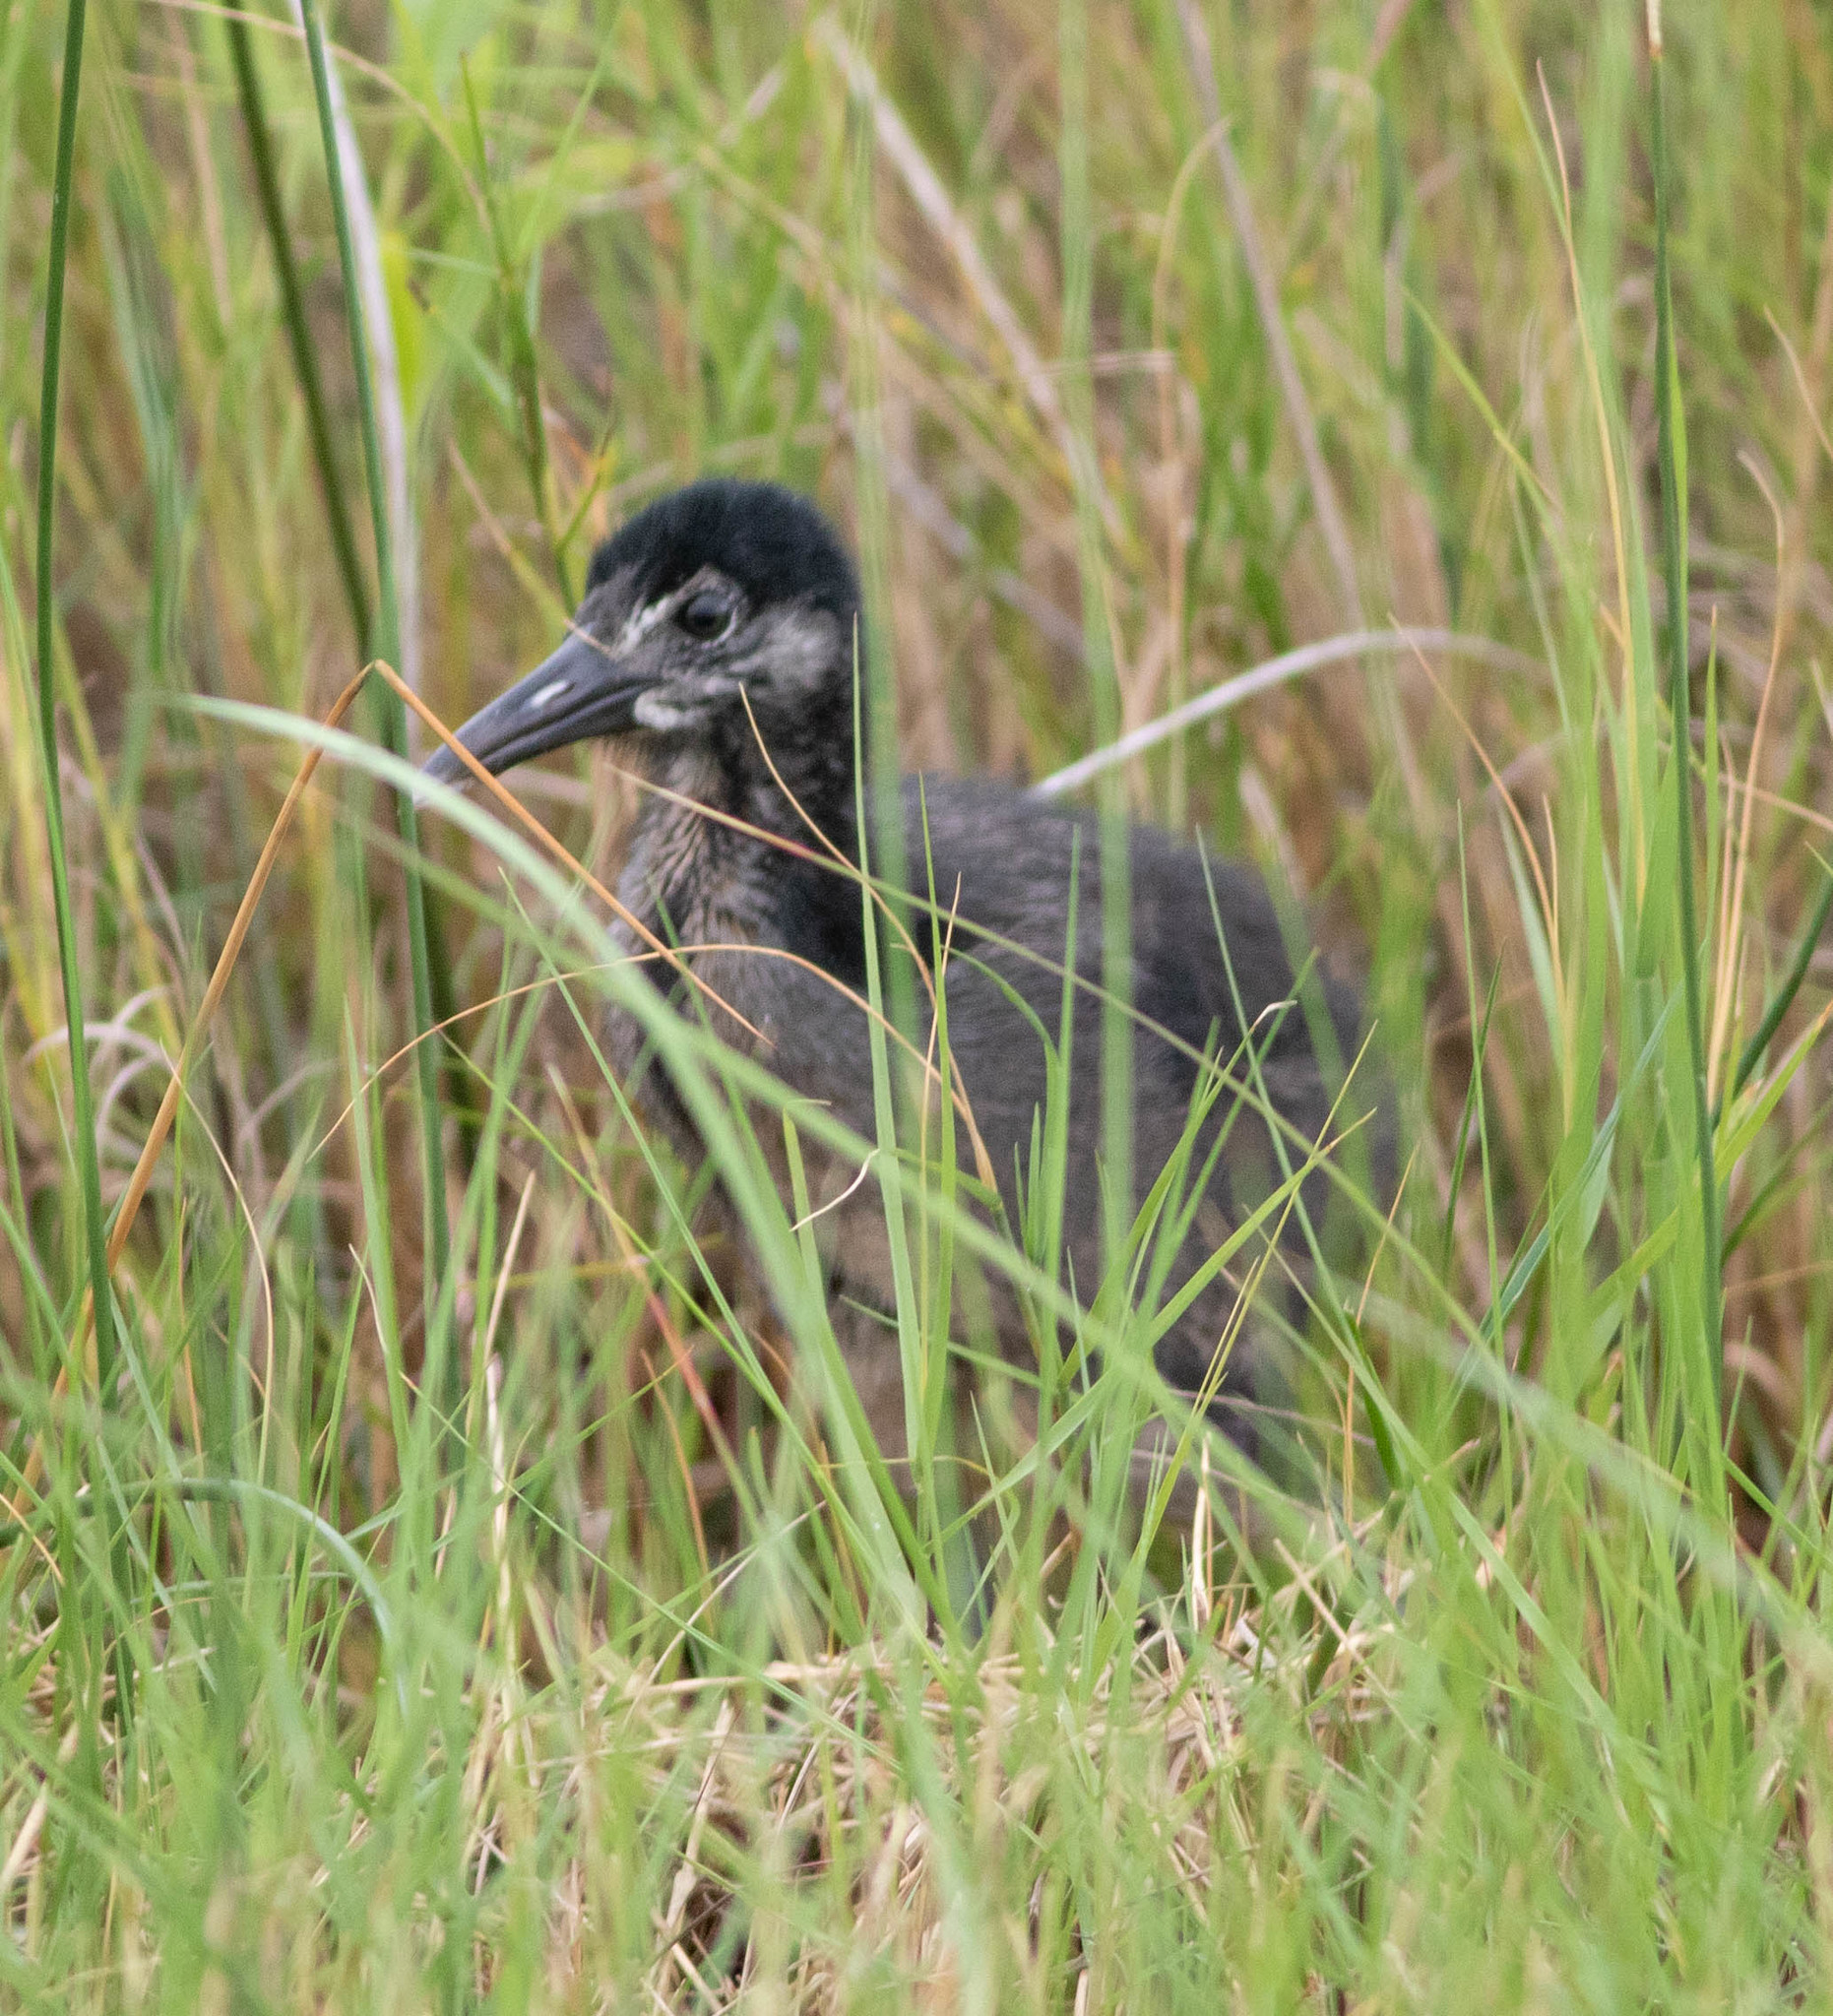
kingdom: Animalia
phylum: Chordata
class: Aves
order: Gruiformes
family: Rallidae
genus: Rallus
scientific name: Rallus crepitans
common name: Clapper rail
